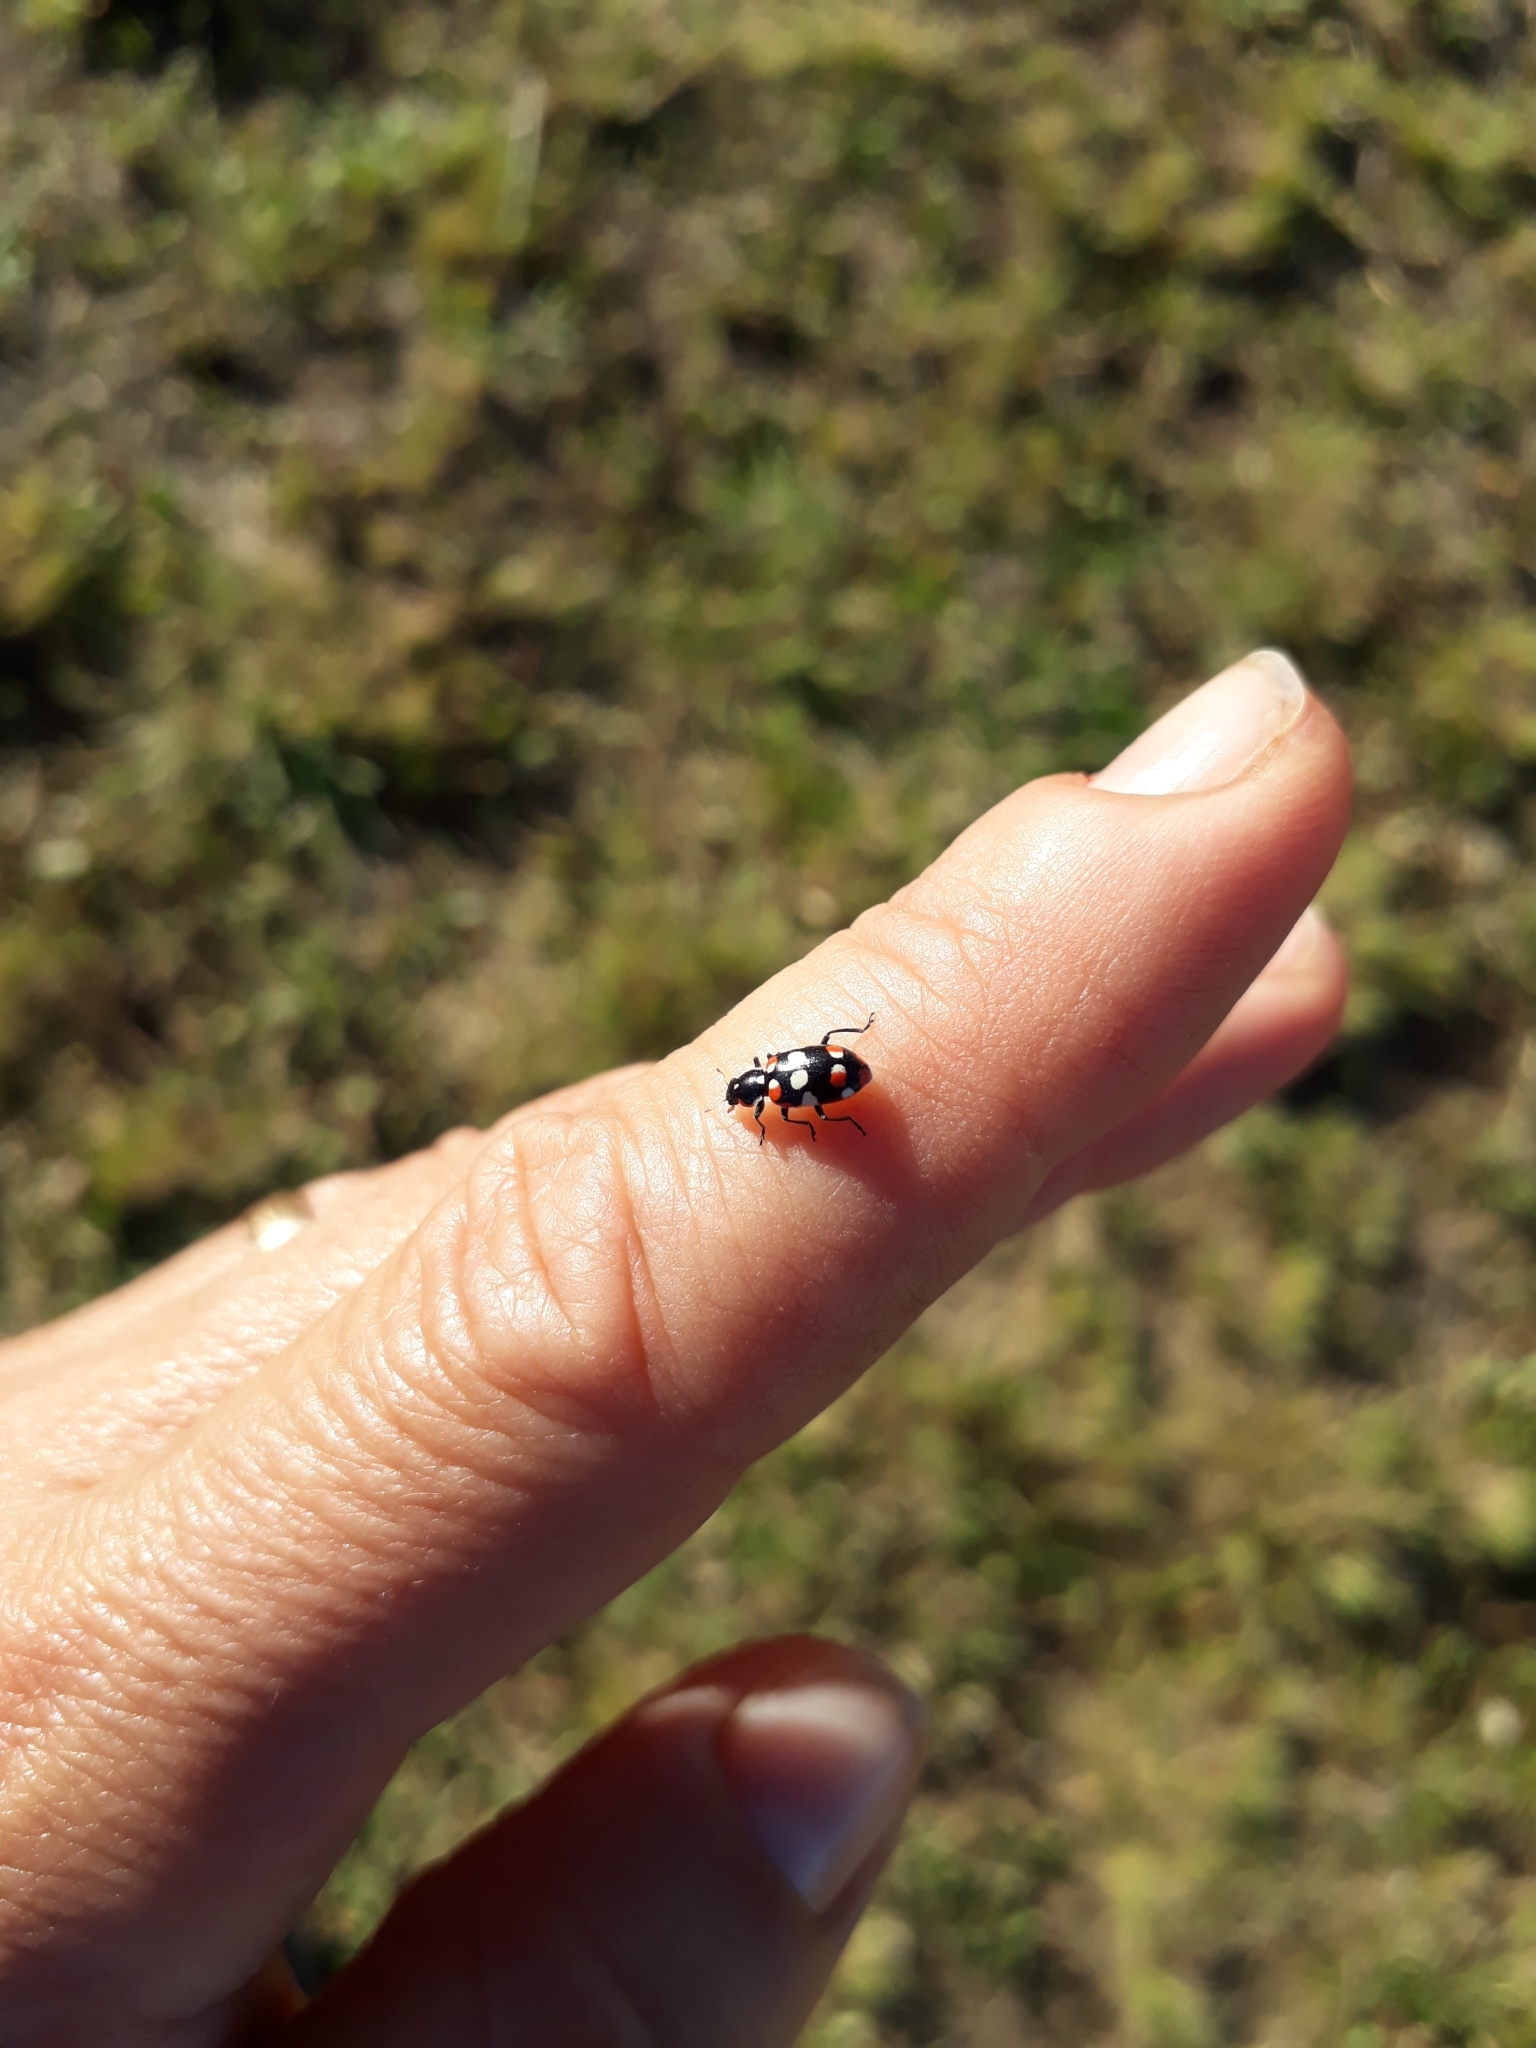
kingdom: Animalia
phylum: Arthropoda
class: Insecta
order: Coleoptera
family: Coccinellidae
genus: Eriopis
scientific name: Eriopis connexa
